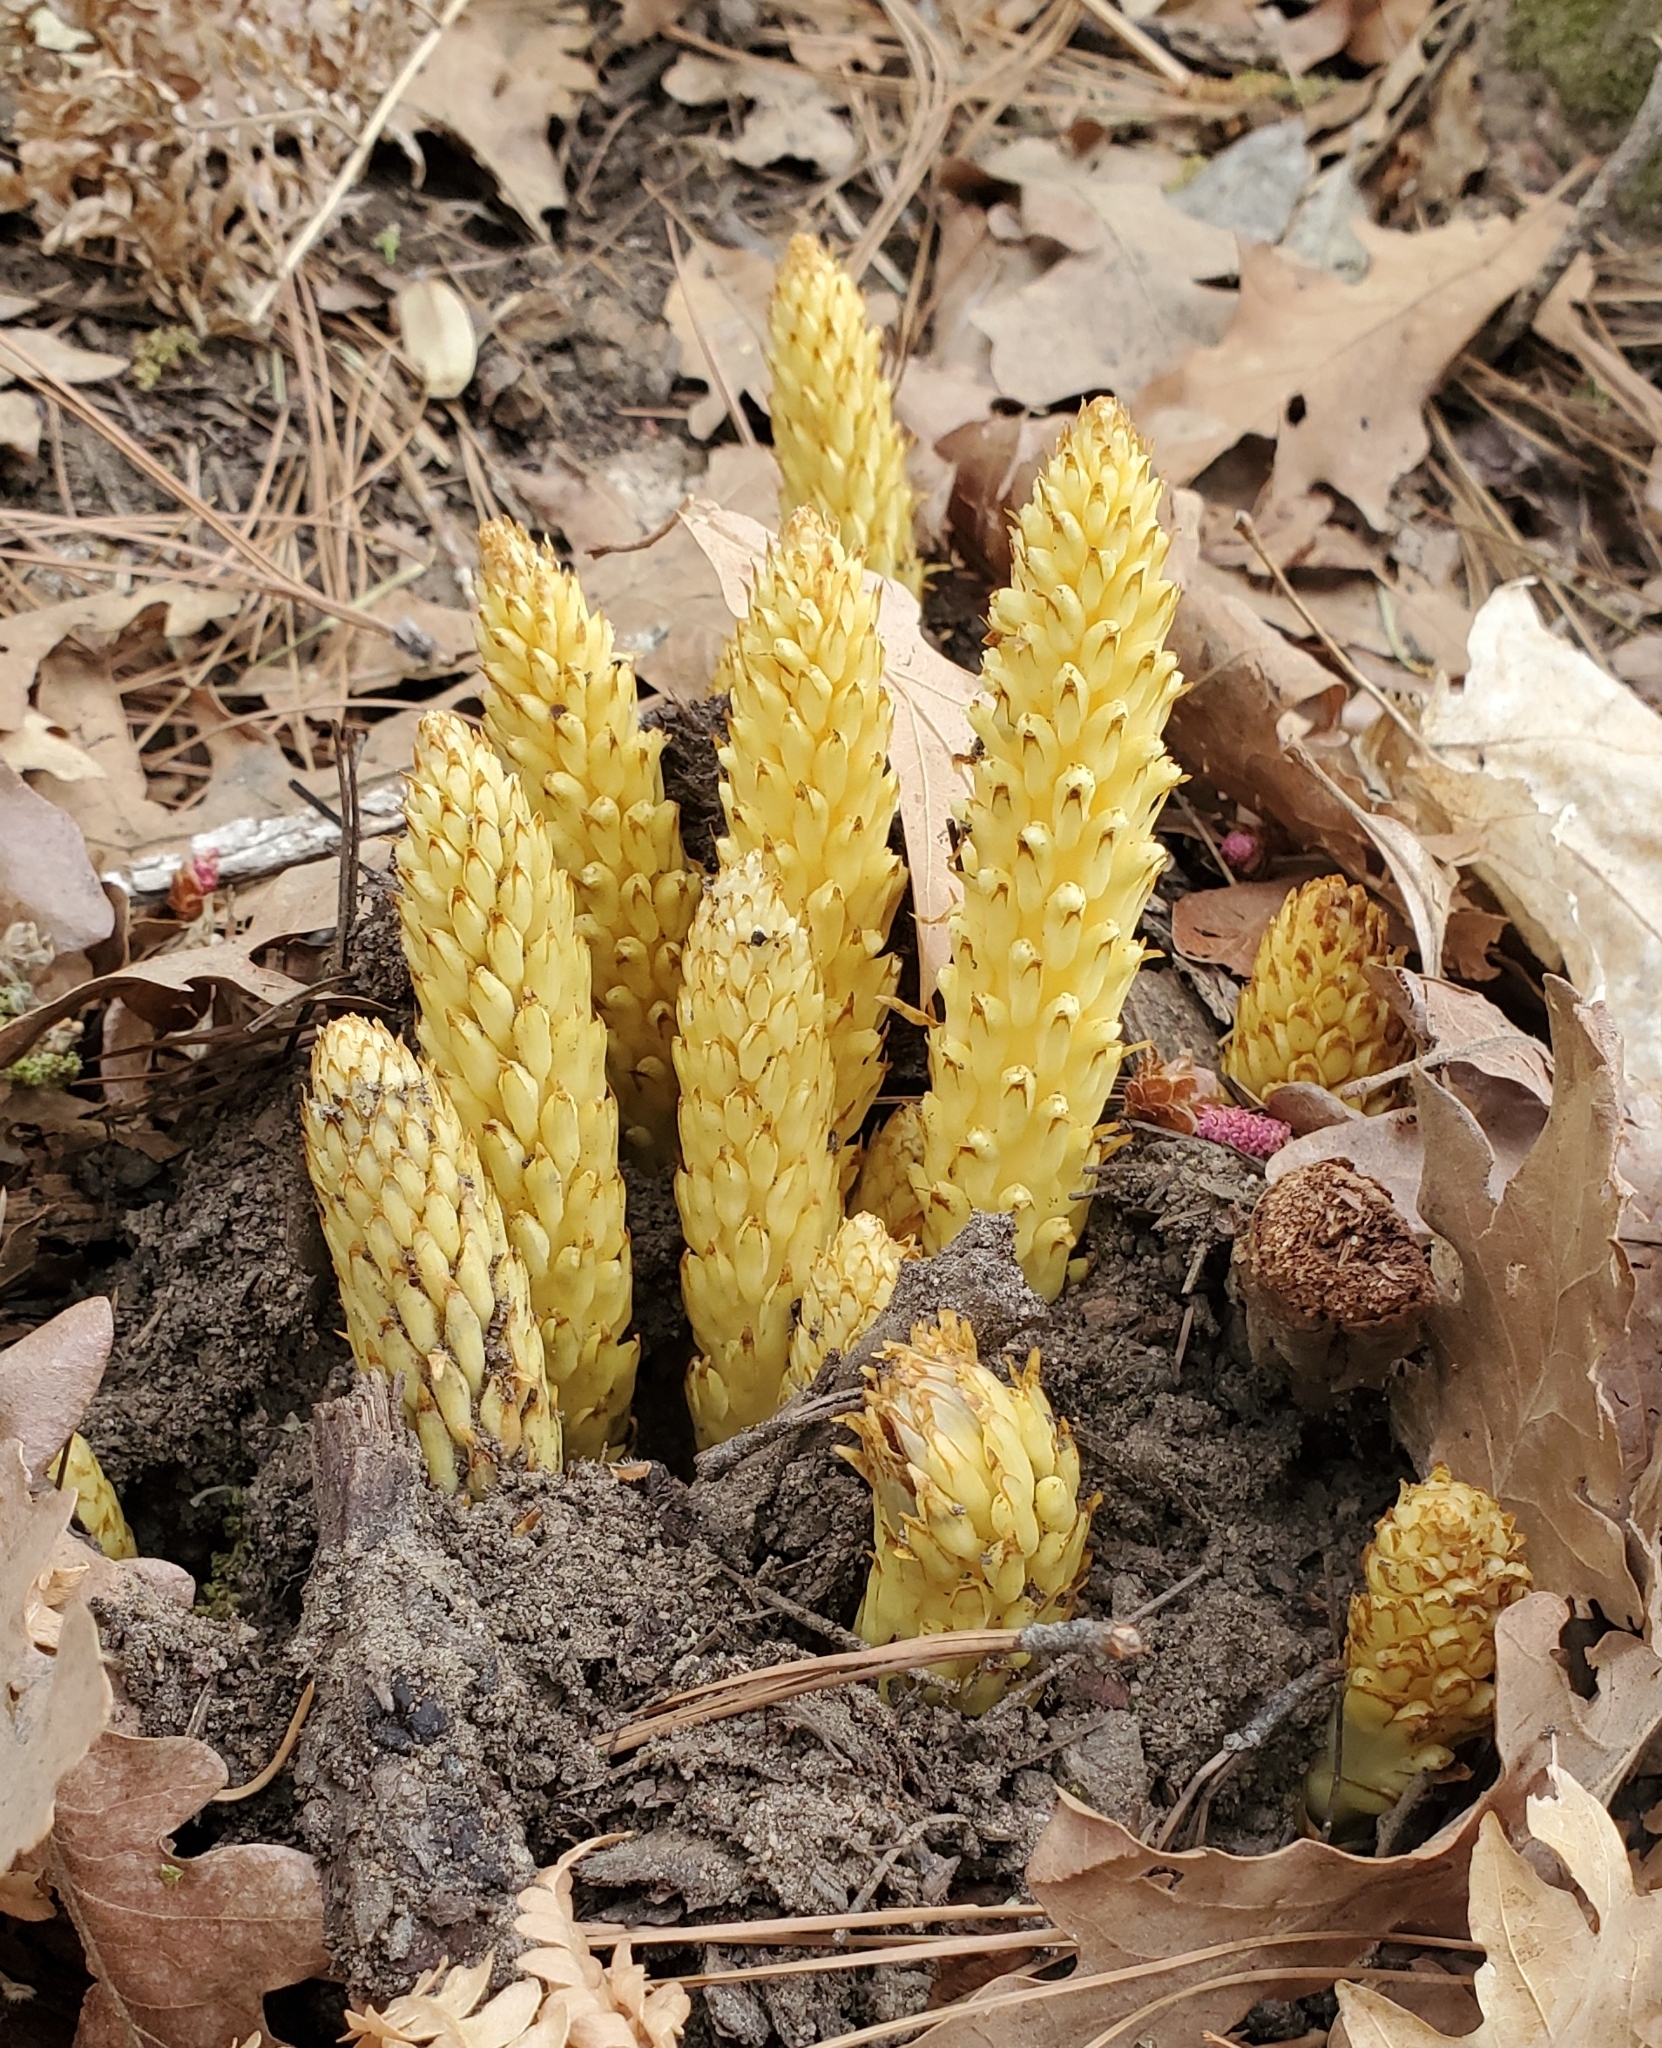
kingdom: Plantae
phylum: Tracheophyta
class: Magnoliopsida
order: Lamiales
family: Orobanchaceae
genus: Conopholis
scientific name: Conopholis alpina
